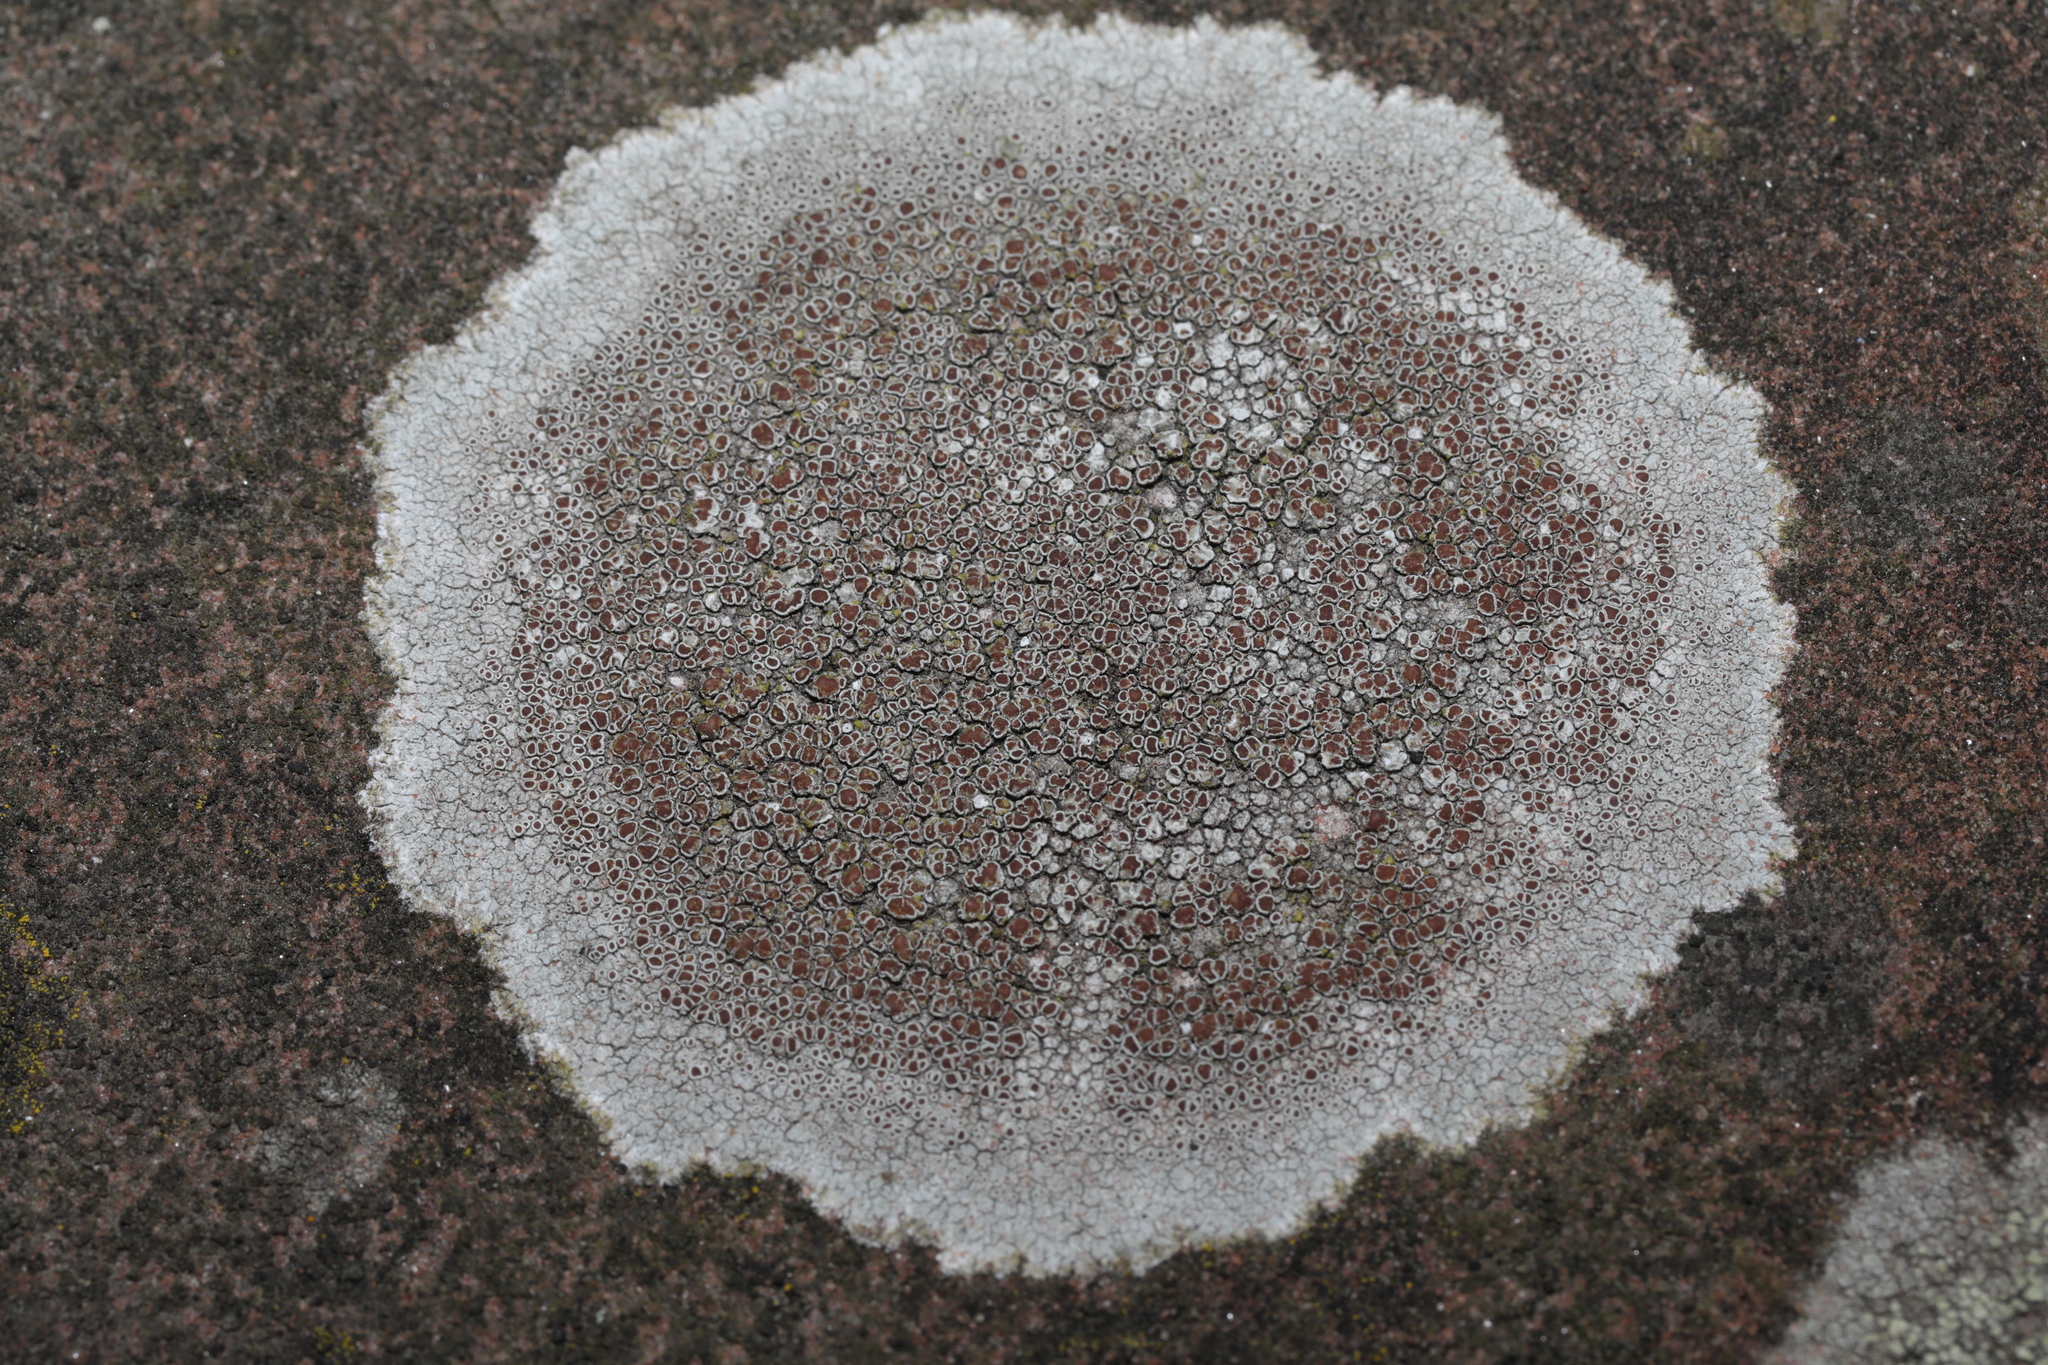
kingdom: Fungi
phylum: Ascomycota
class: Lecanoromycetes
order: Lecanorales
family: Lecanoraceae
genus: Lecanora
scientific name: Lecanora campestris
